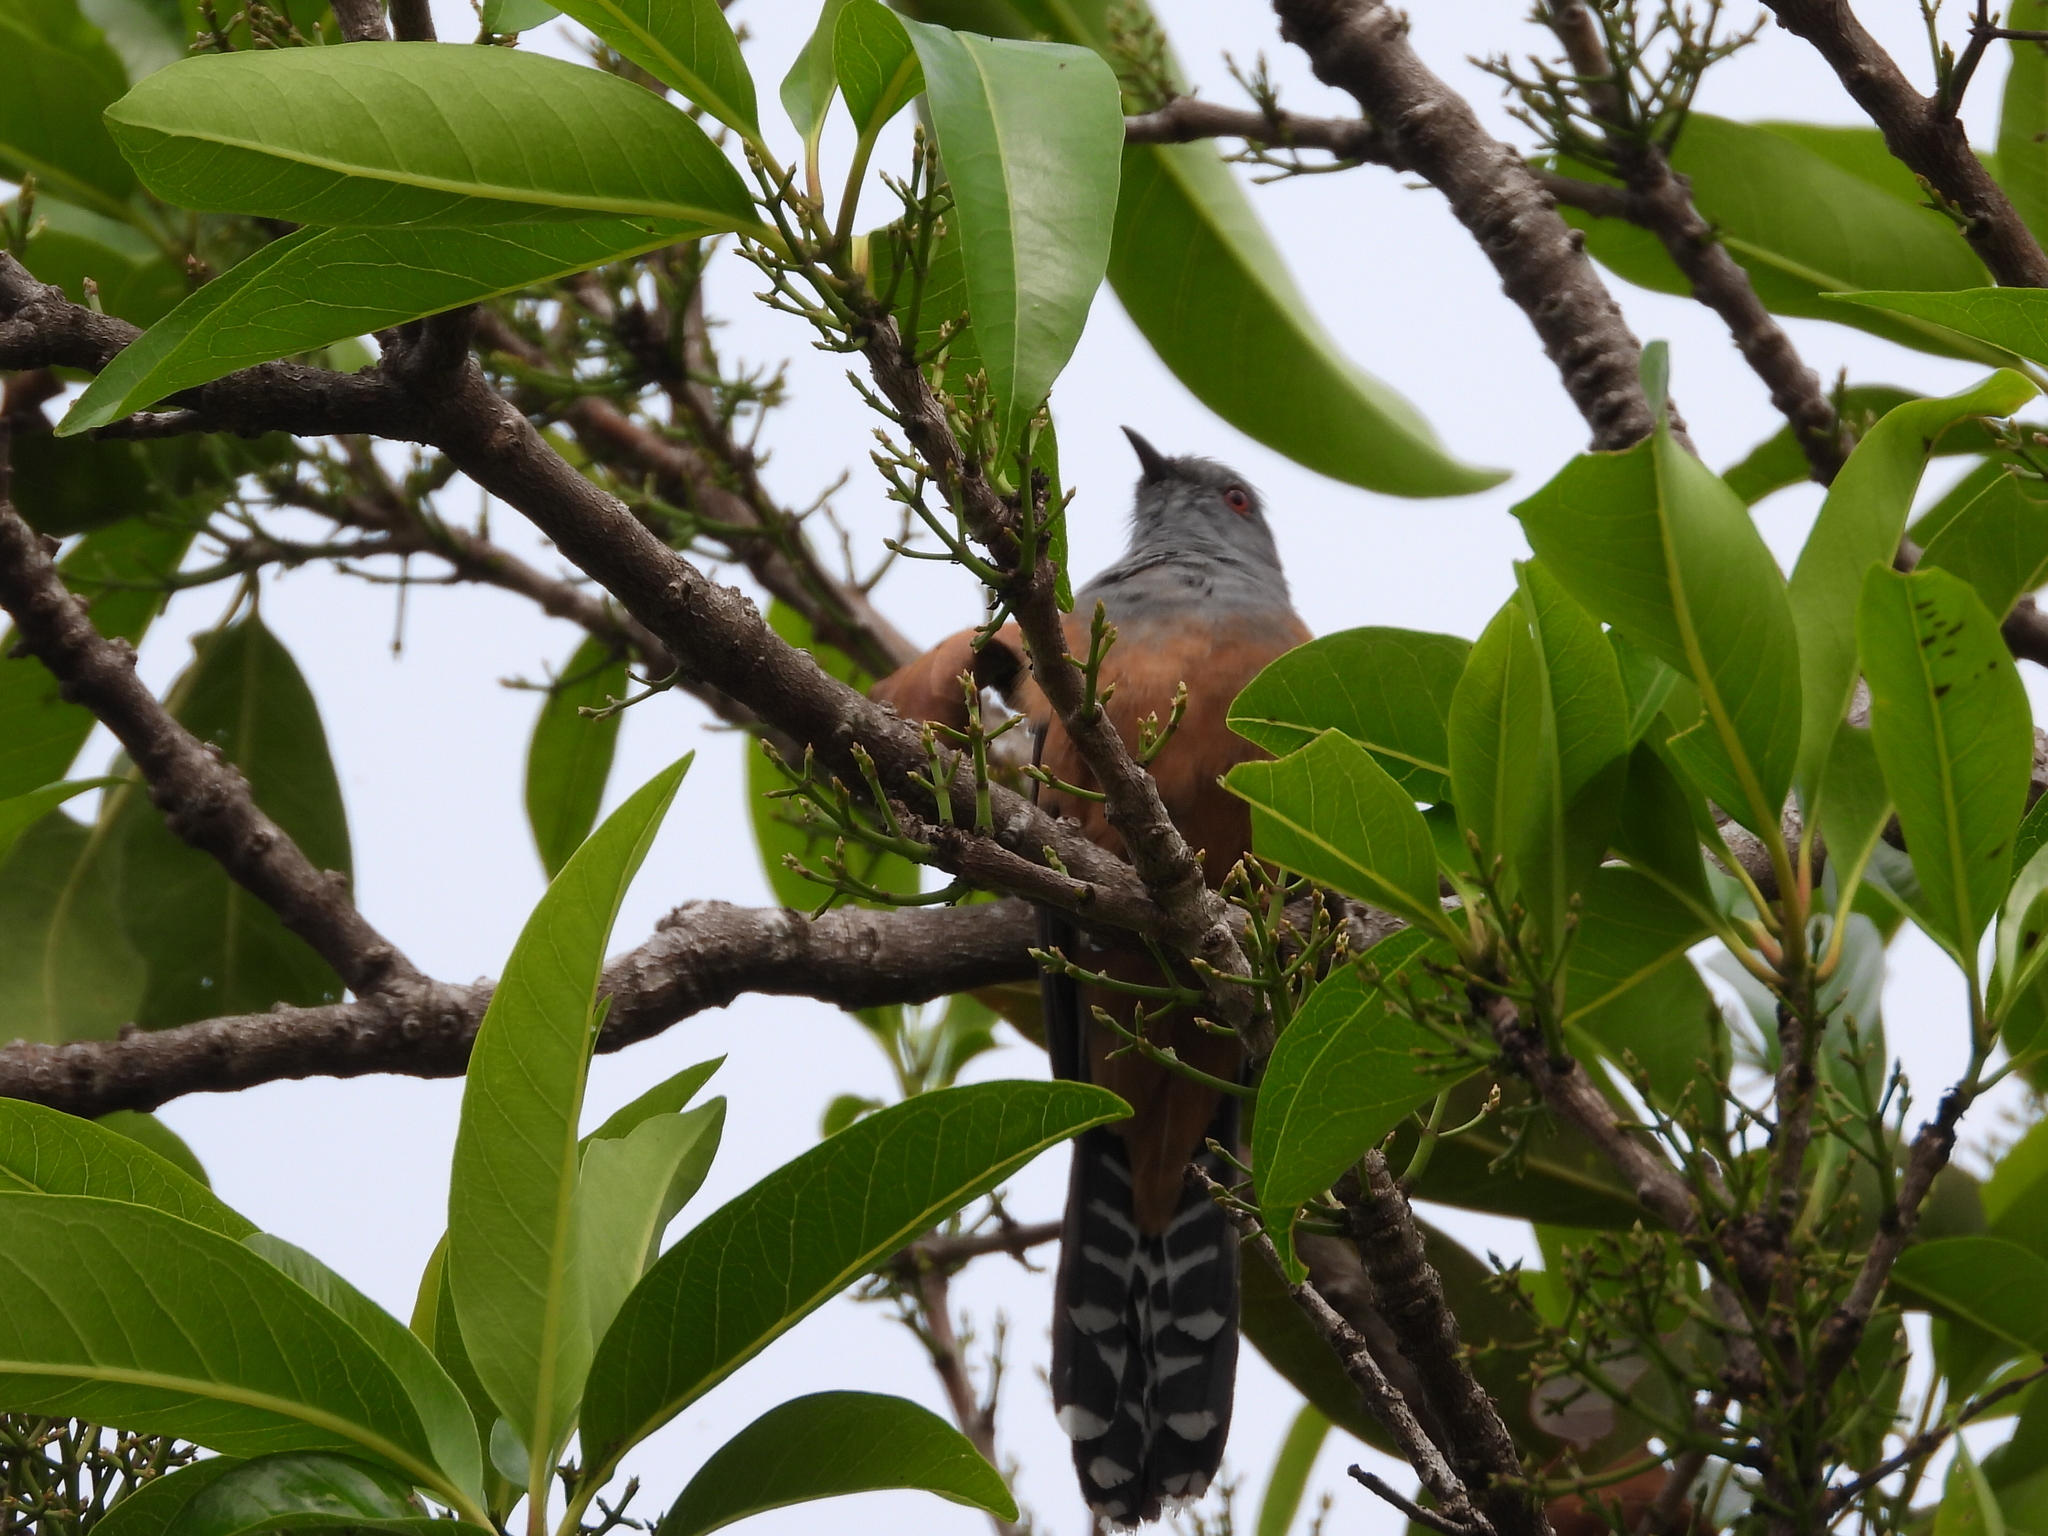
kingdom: Animalia
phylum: Chordata
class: Aves
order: Cuculiformes
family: Cuculidae
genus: Cacomantis
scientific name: Cacomantis merulinus
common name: Plaintive cuckoo
